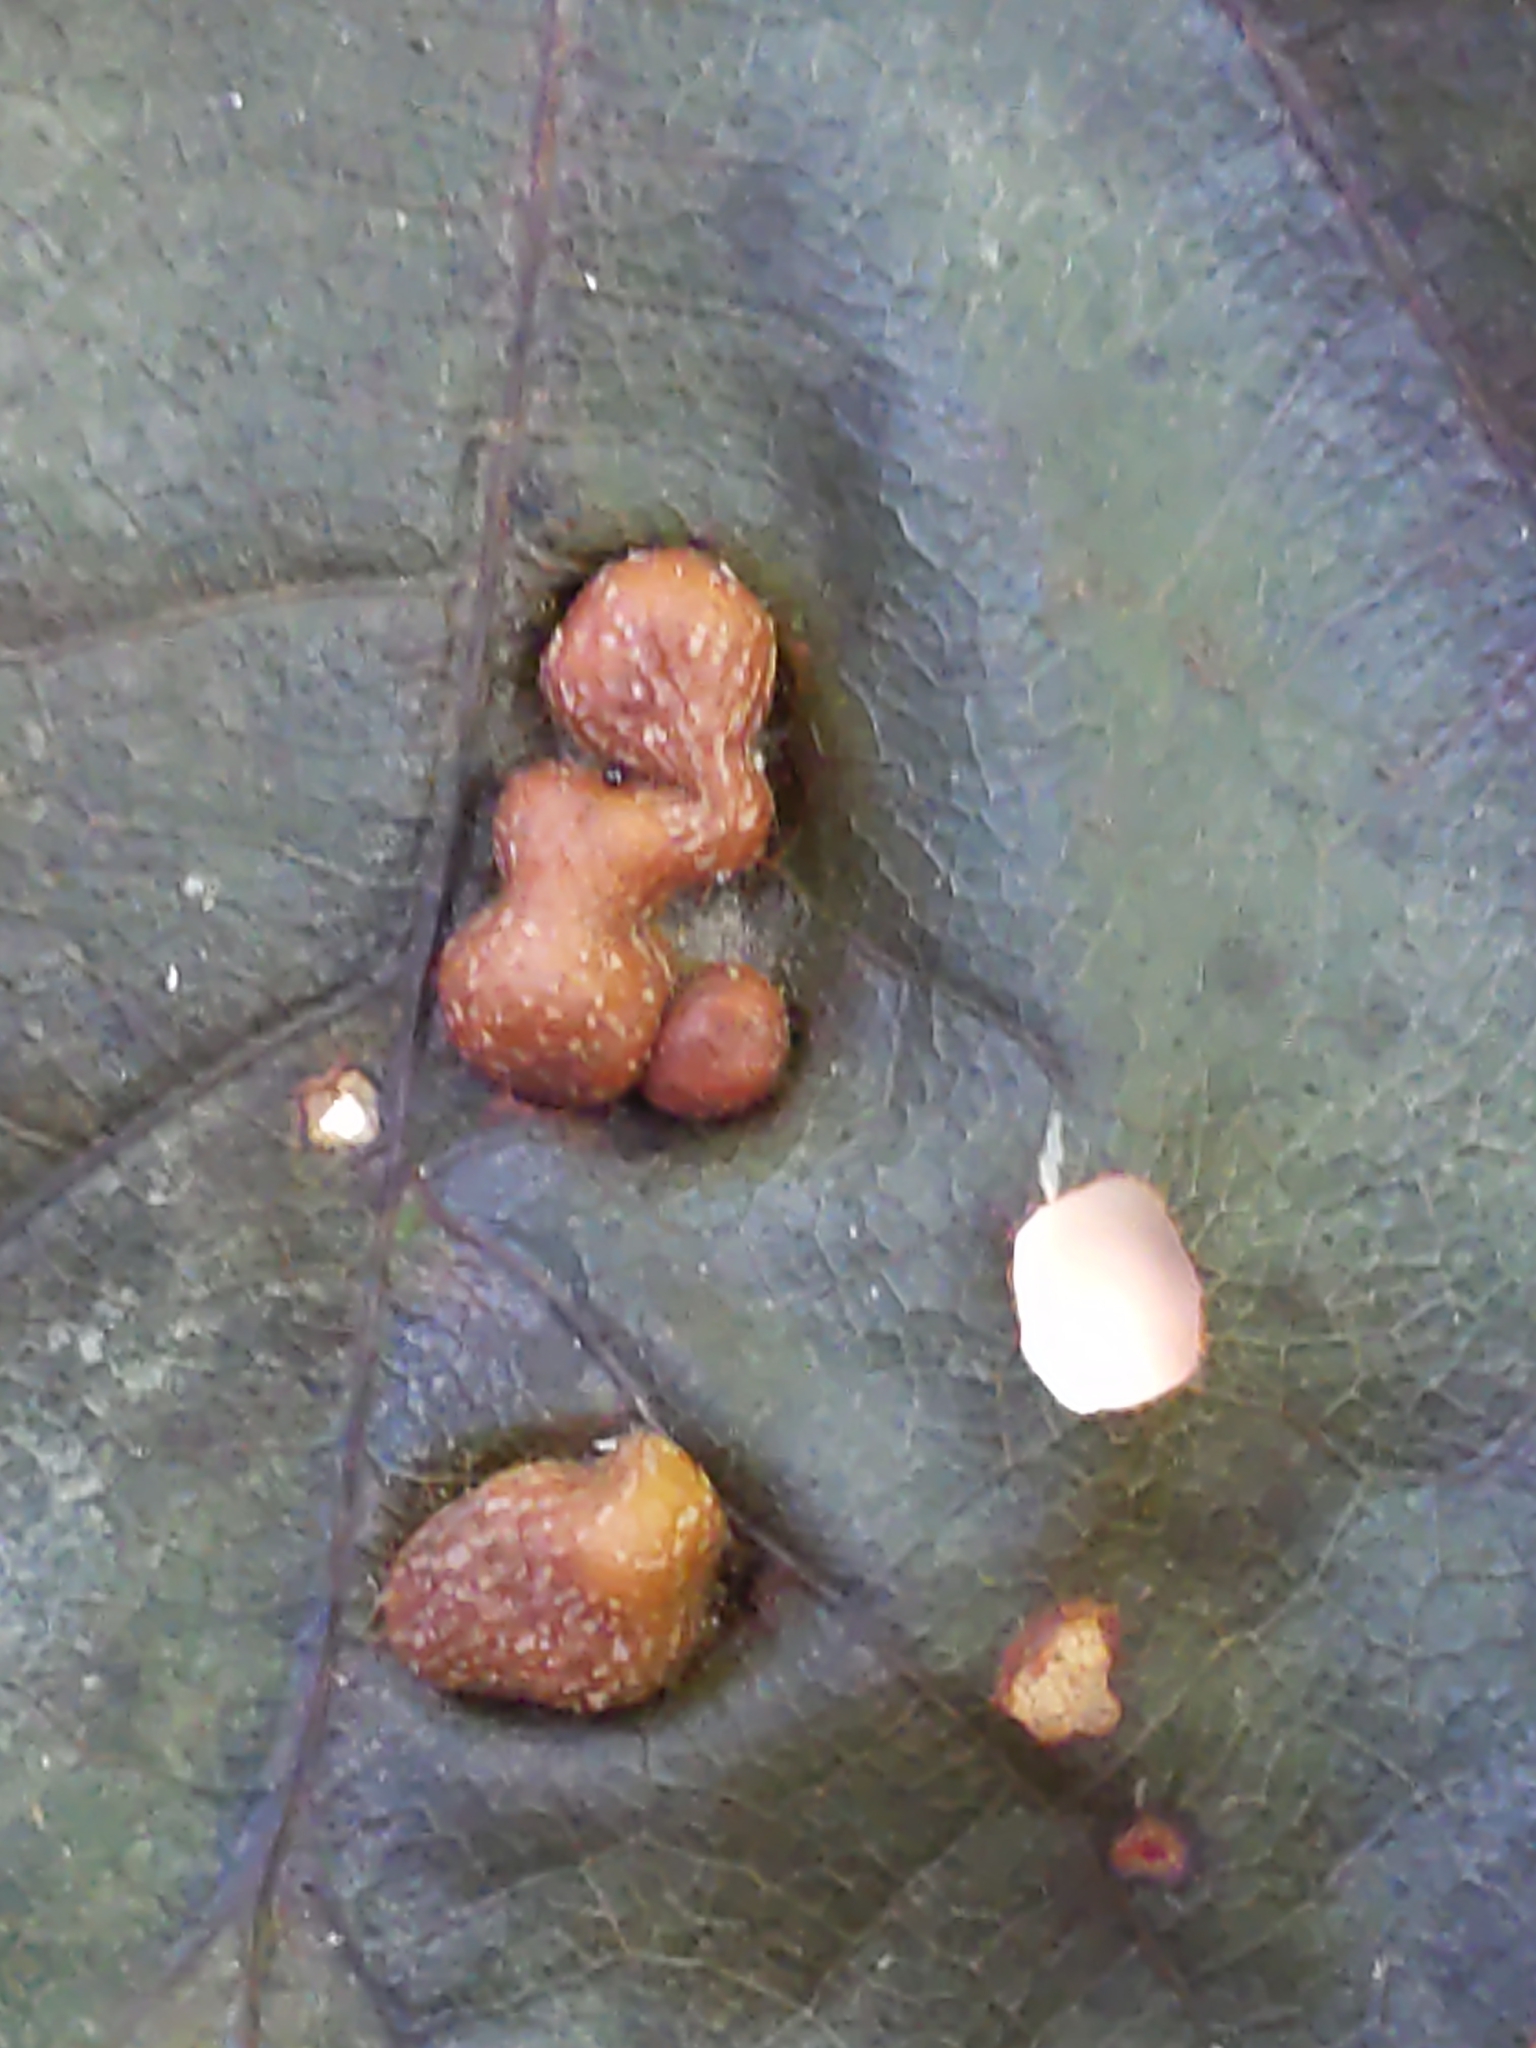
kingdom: Animalia
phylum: Arthropoda
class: Insecta
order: Diptera
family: Cecidomyiidae
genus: Polystepha
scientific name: Polystepha pilulae
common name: Oak leaf gall midge
